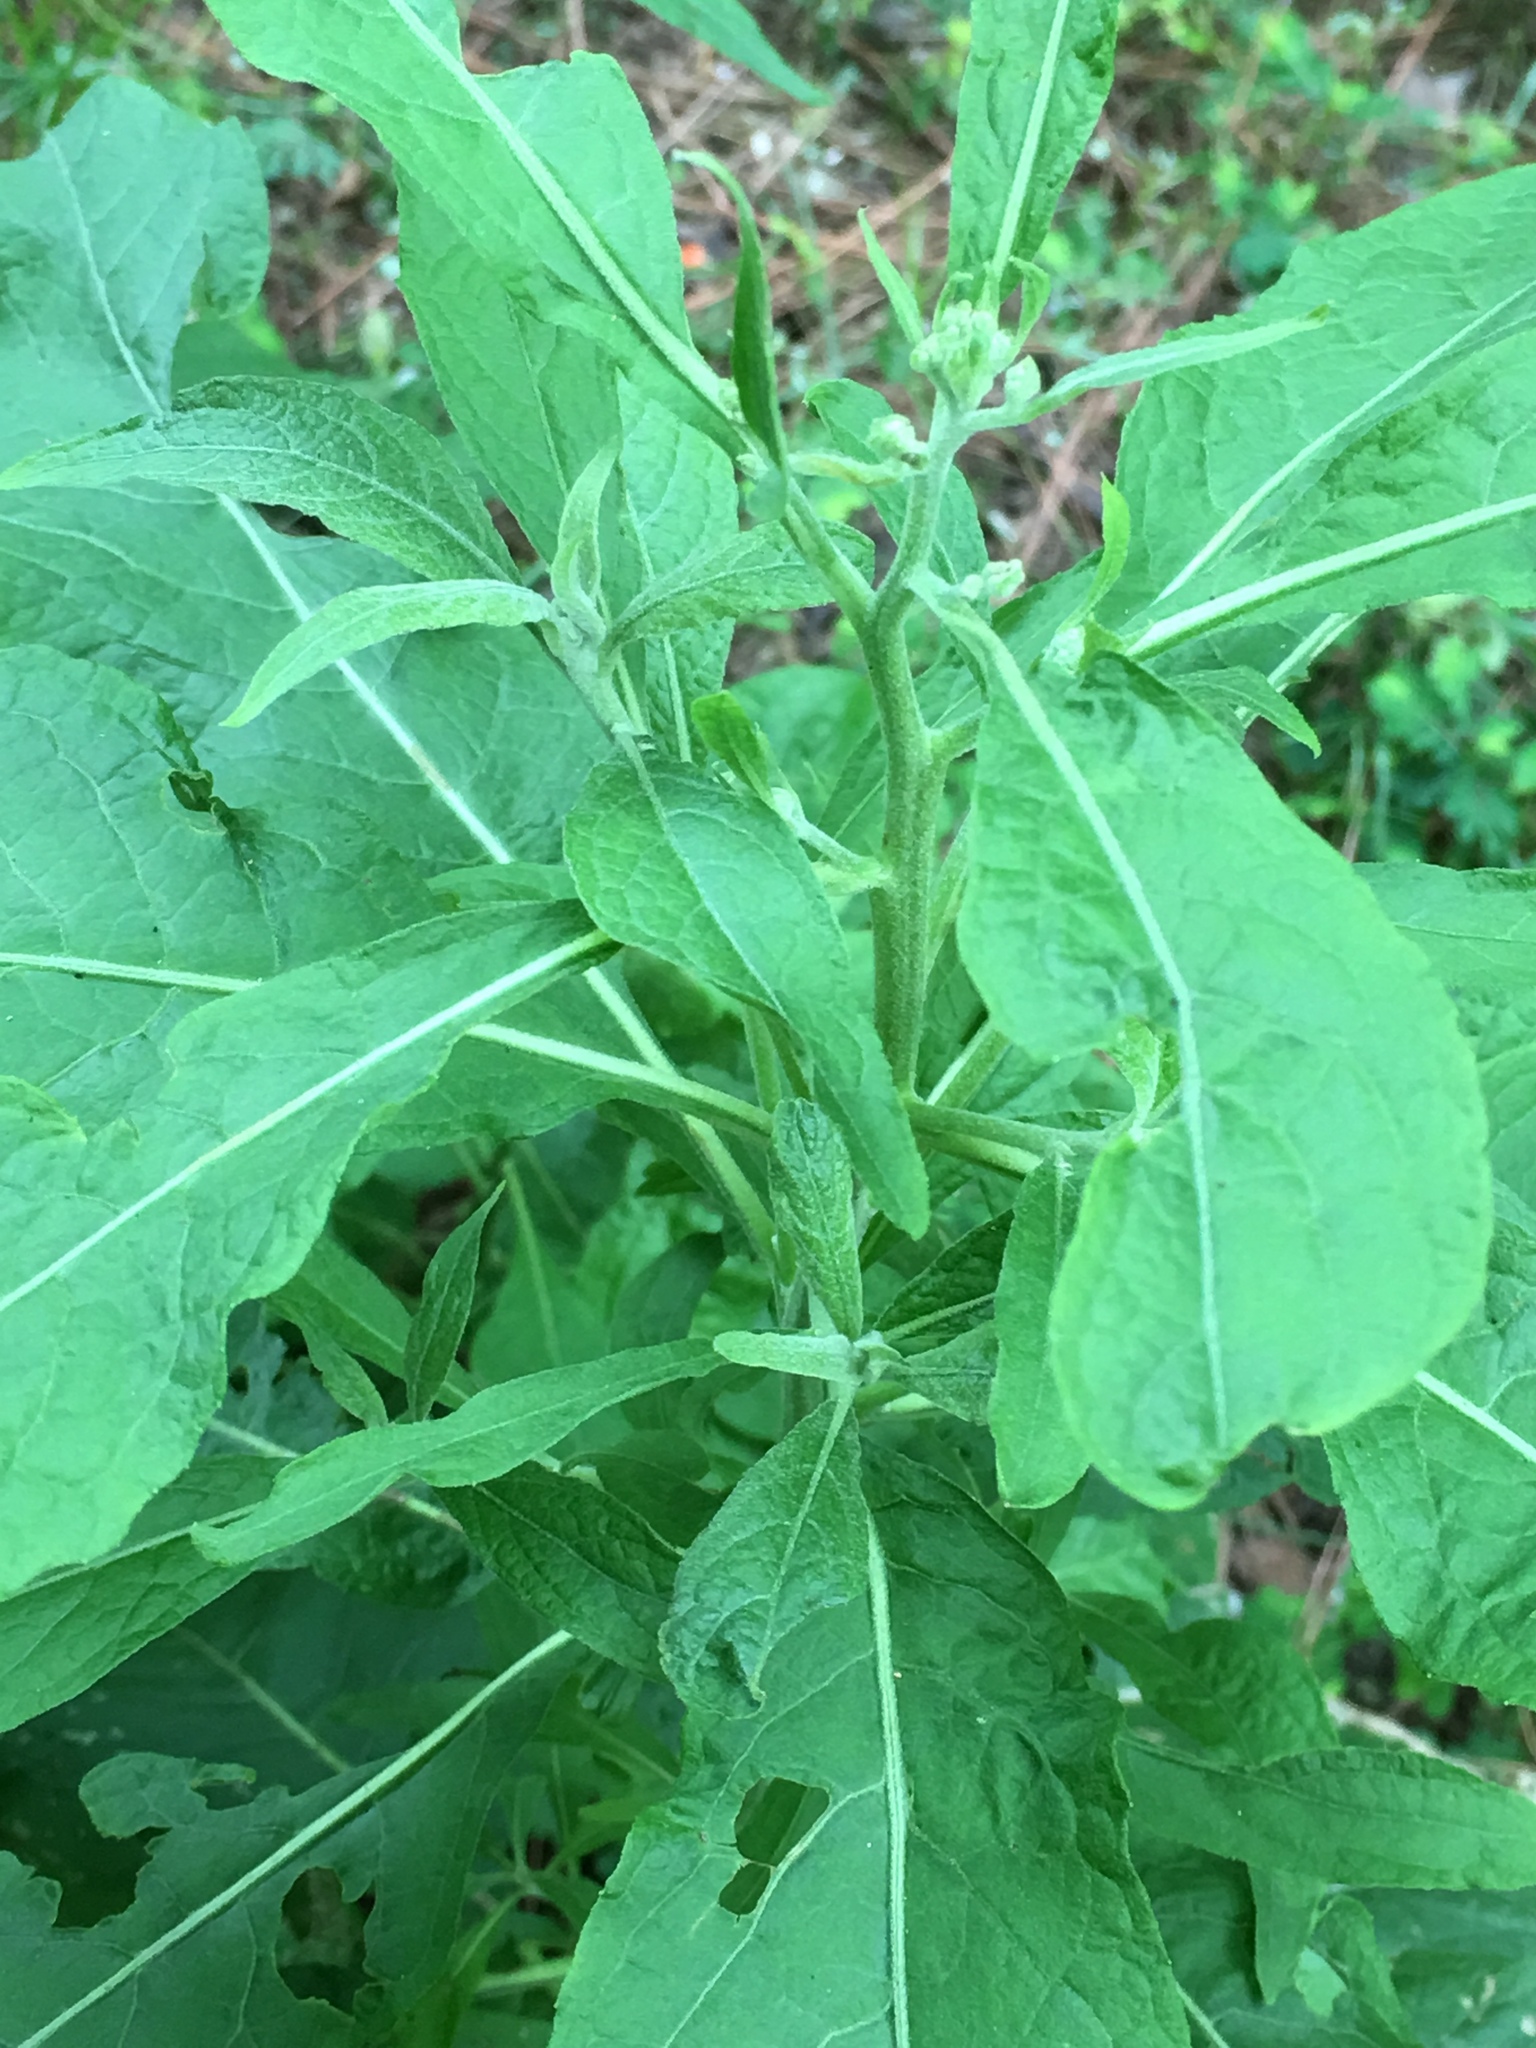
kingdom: Plantae
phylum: Tracheophyta
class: Magnoliopsida
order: Asterales
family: Asteraceae
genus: Pluchea
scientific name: Pluchea camphorata
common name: Camphor pluchea
